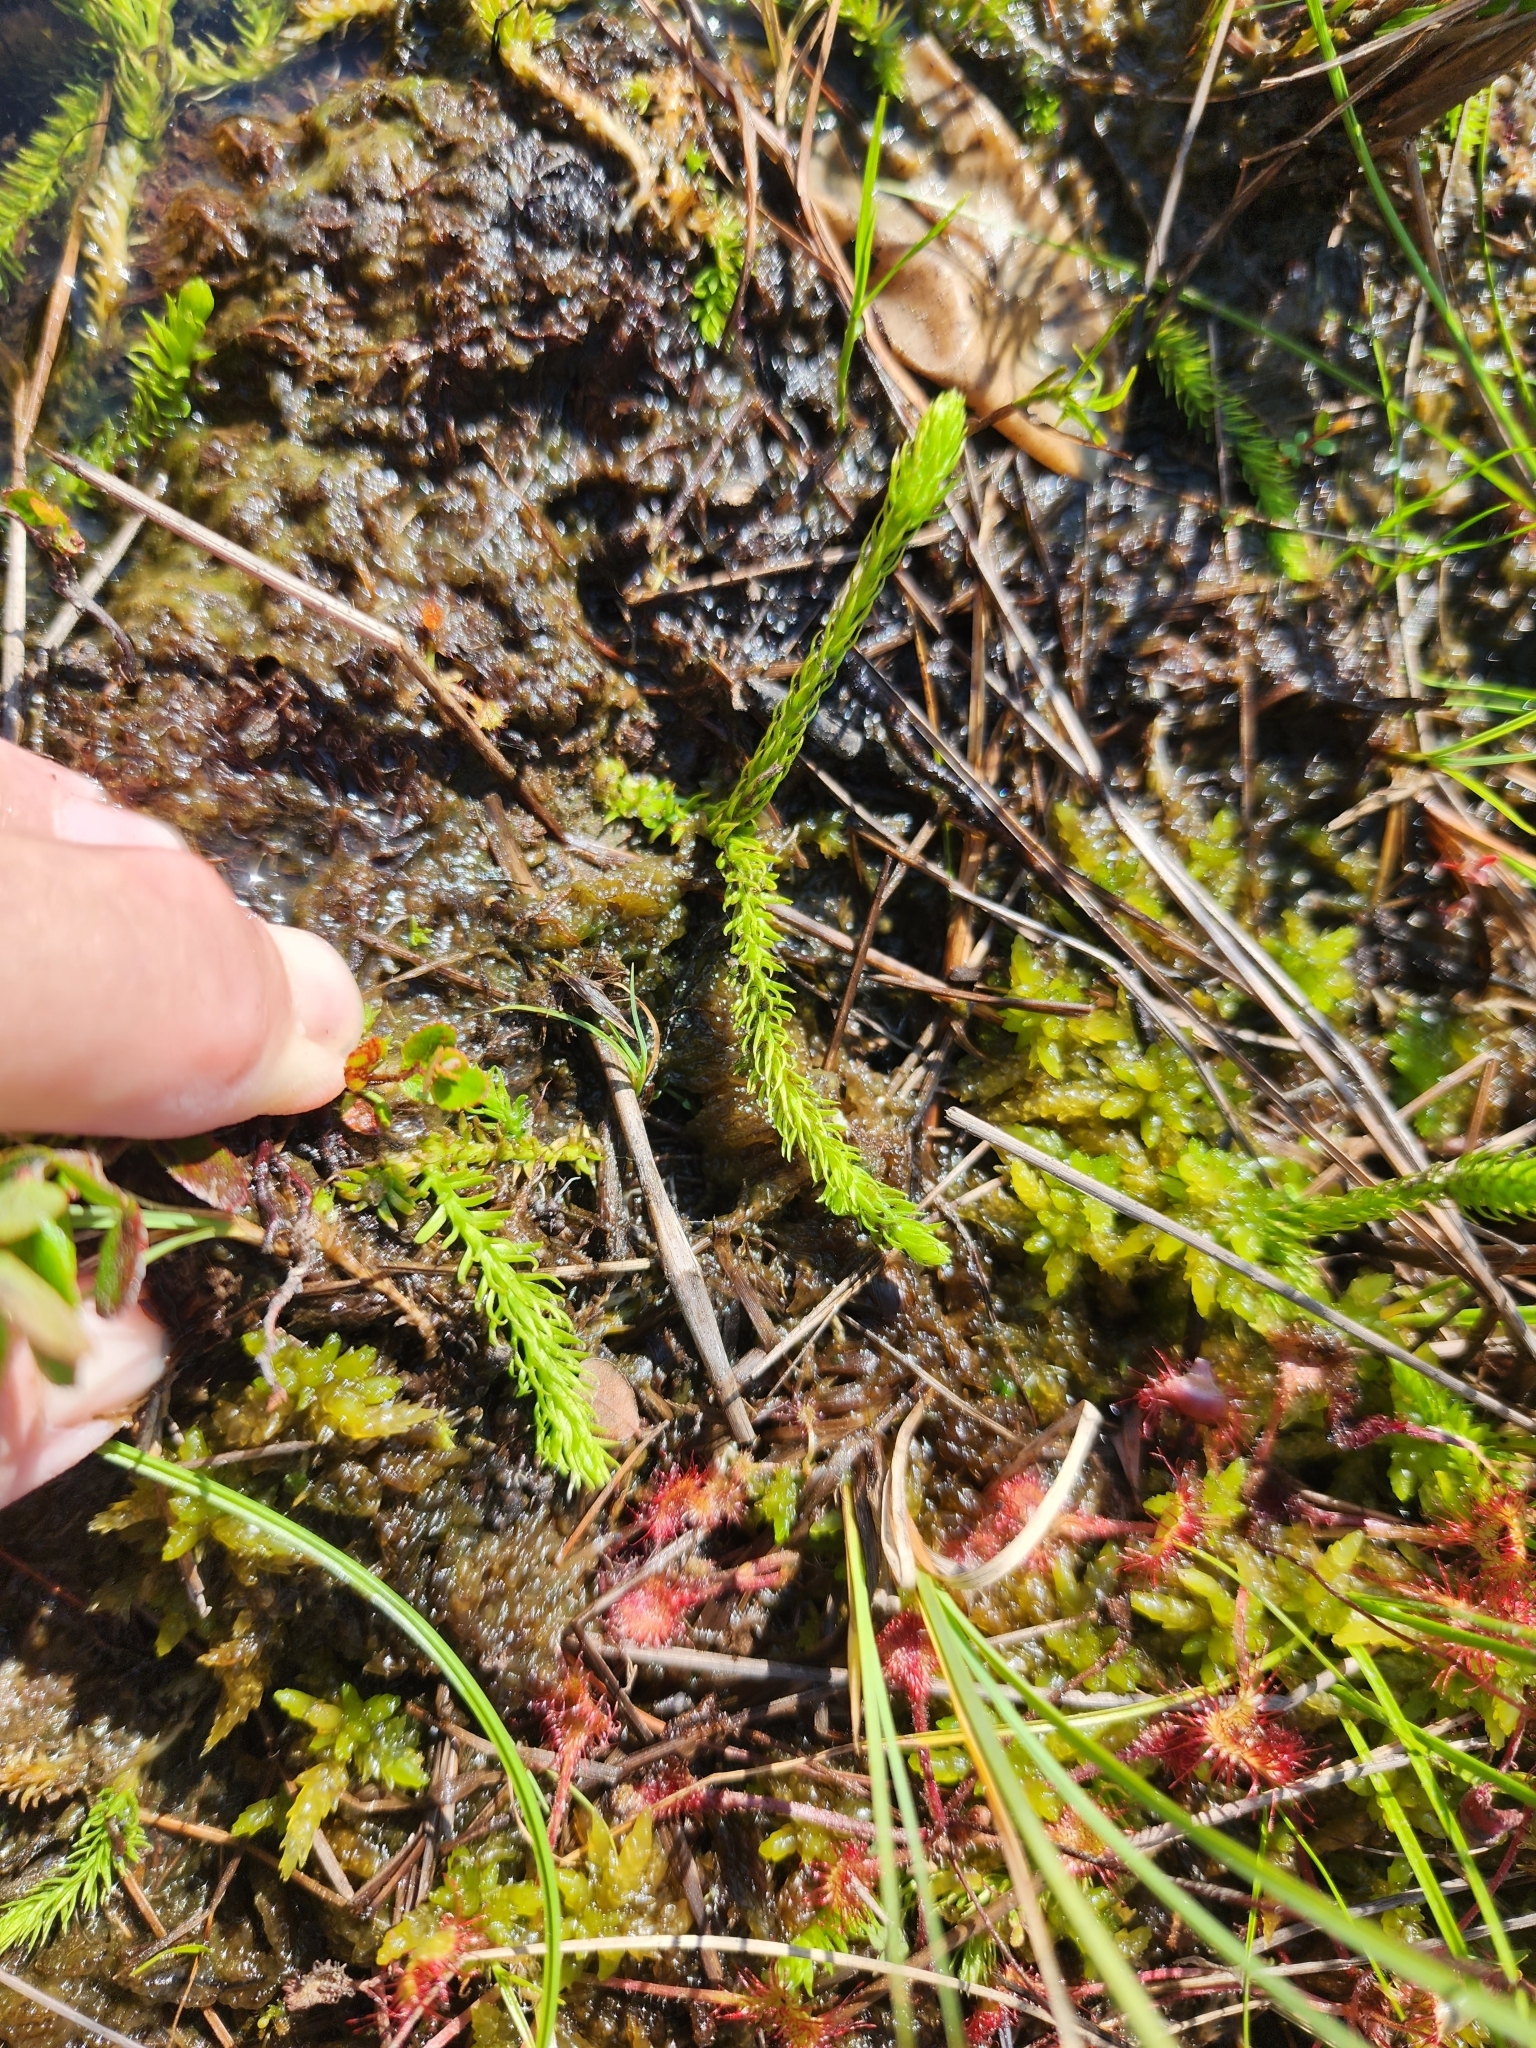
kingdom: Plantae
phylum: Tracheophyta
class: Lycopodiopsida
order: Lycopodiales
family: Lycopodiaceae
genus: Lycopodiella
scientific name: Lycopodiella inundata
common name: Marsh clubmoss
